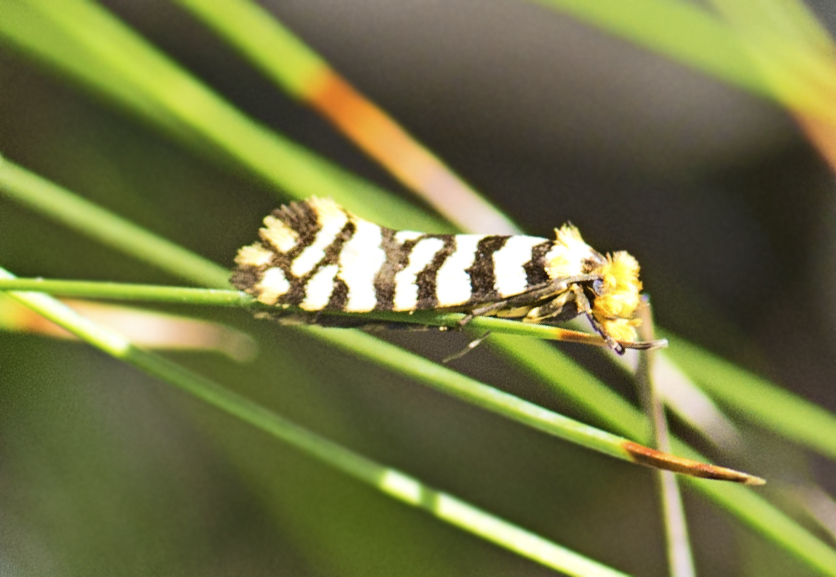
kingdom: Animalia
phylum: Arthropoda
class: Insecta
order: Lepidoptera
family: Tineidae
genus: Moerarchis
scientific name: Moerarchis australasiella
